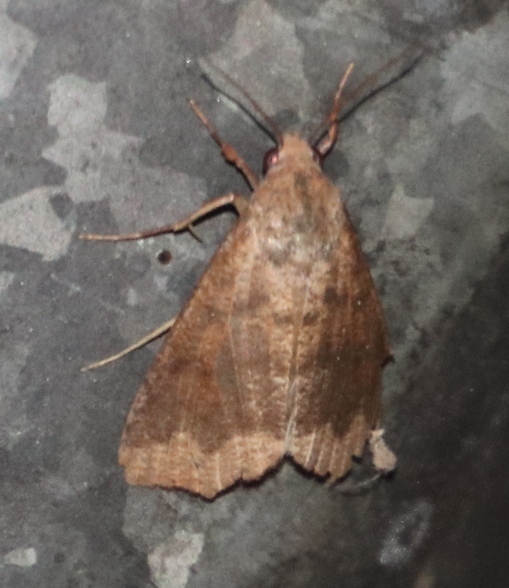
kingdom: Animalia
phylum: Arthropoda
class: Insecta
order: Lepidoptera
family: Erebidae
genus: Anomis
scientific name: Anomis sabulifera
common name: Angled gem
